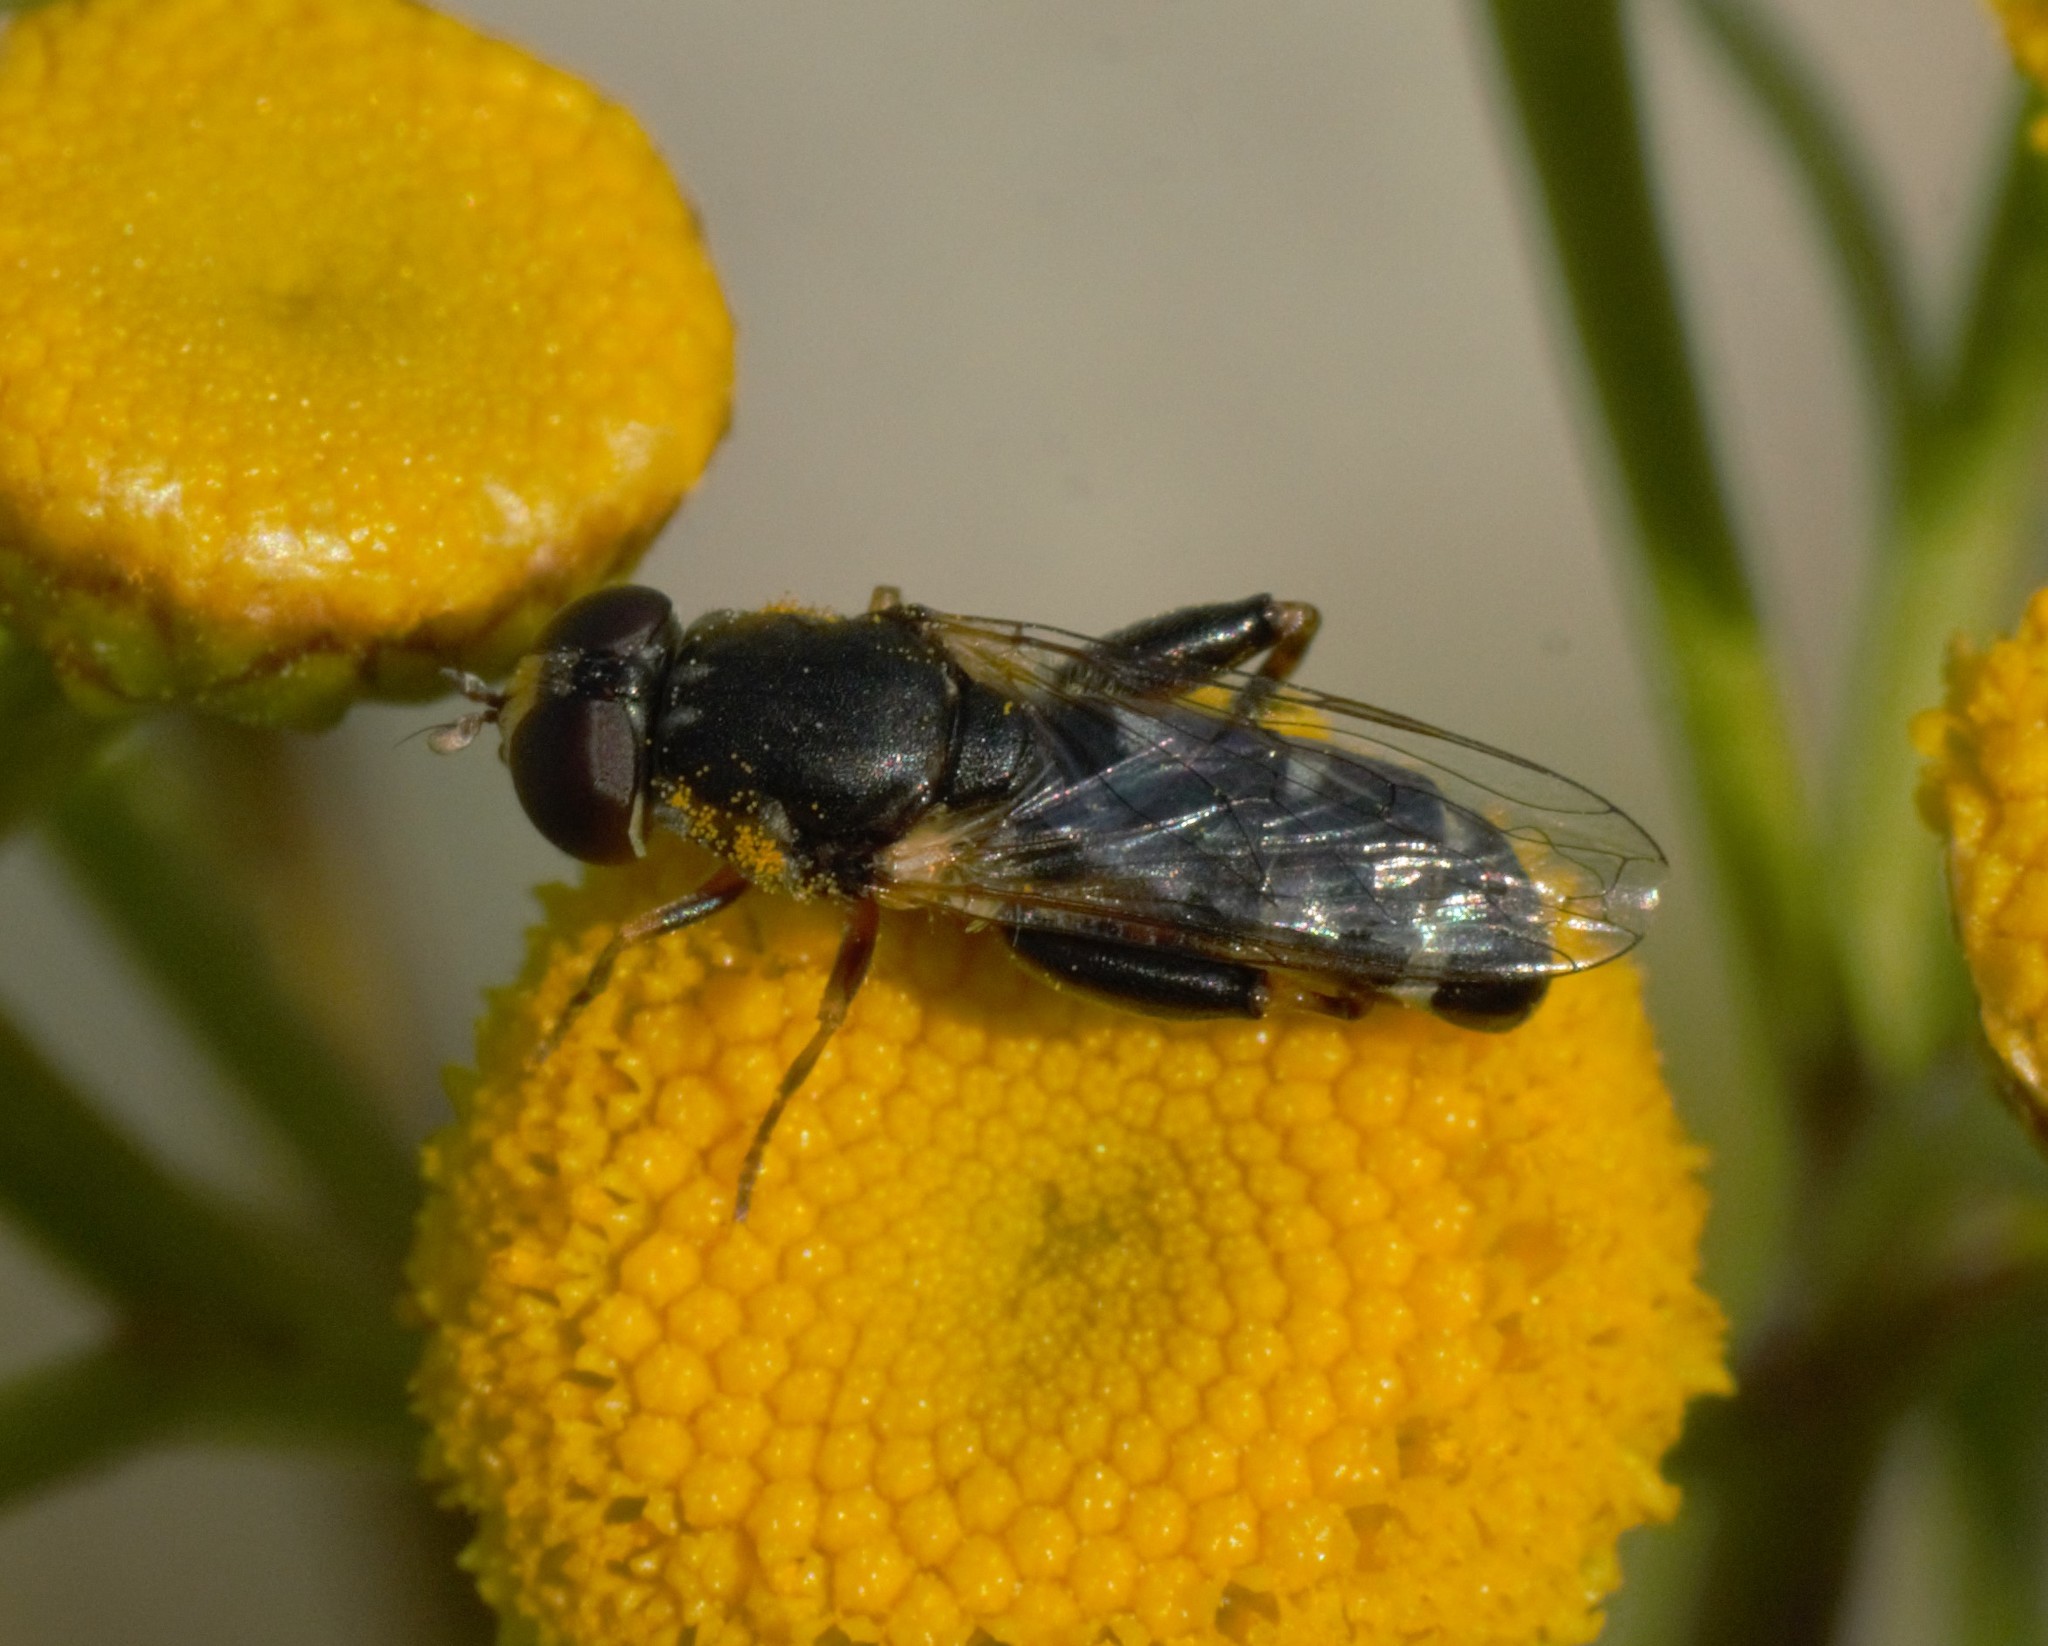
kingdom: Animalia
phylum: Arthropoda
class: Insecta
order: Diptera
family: Syrphidae
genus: Syritta
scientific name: Syritta pipiens
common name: Hover fly
